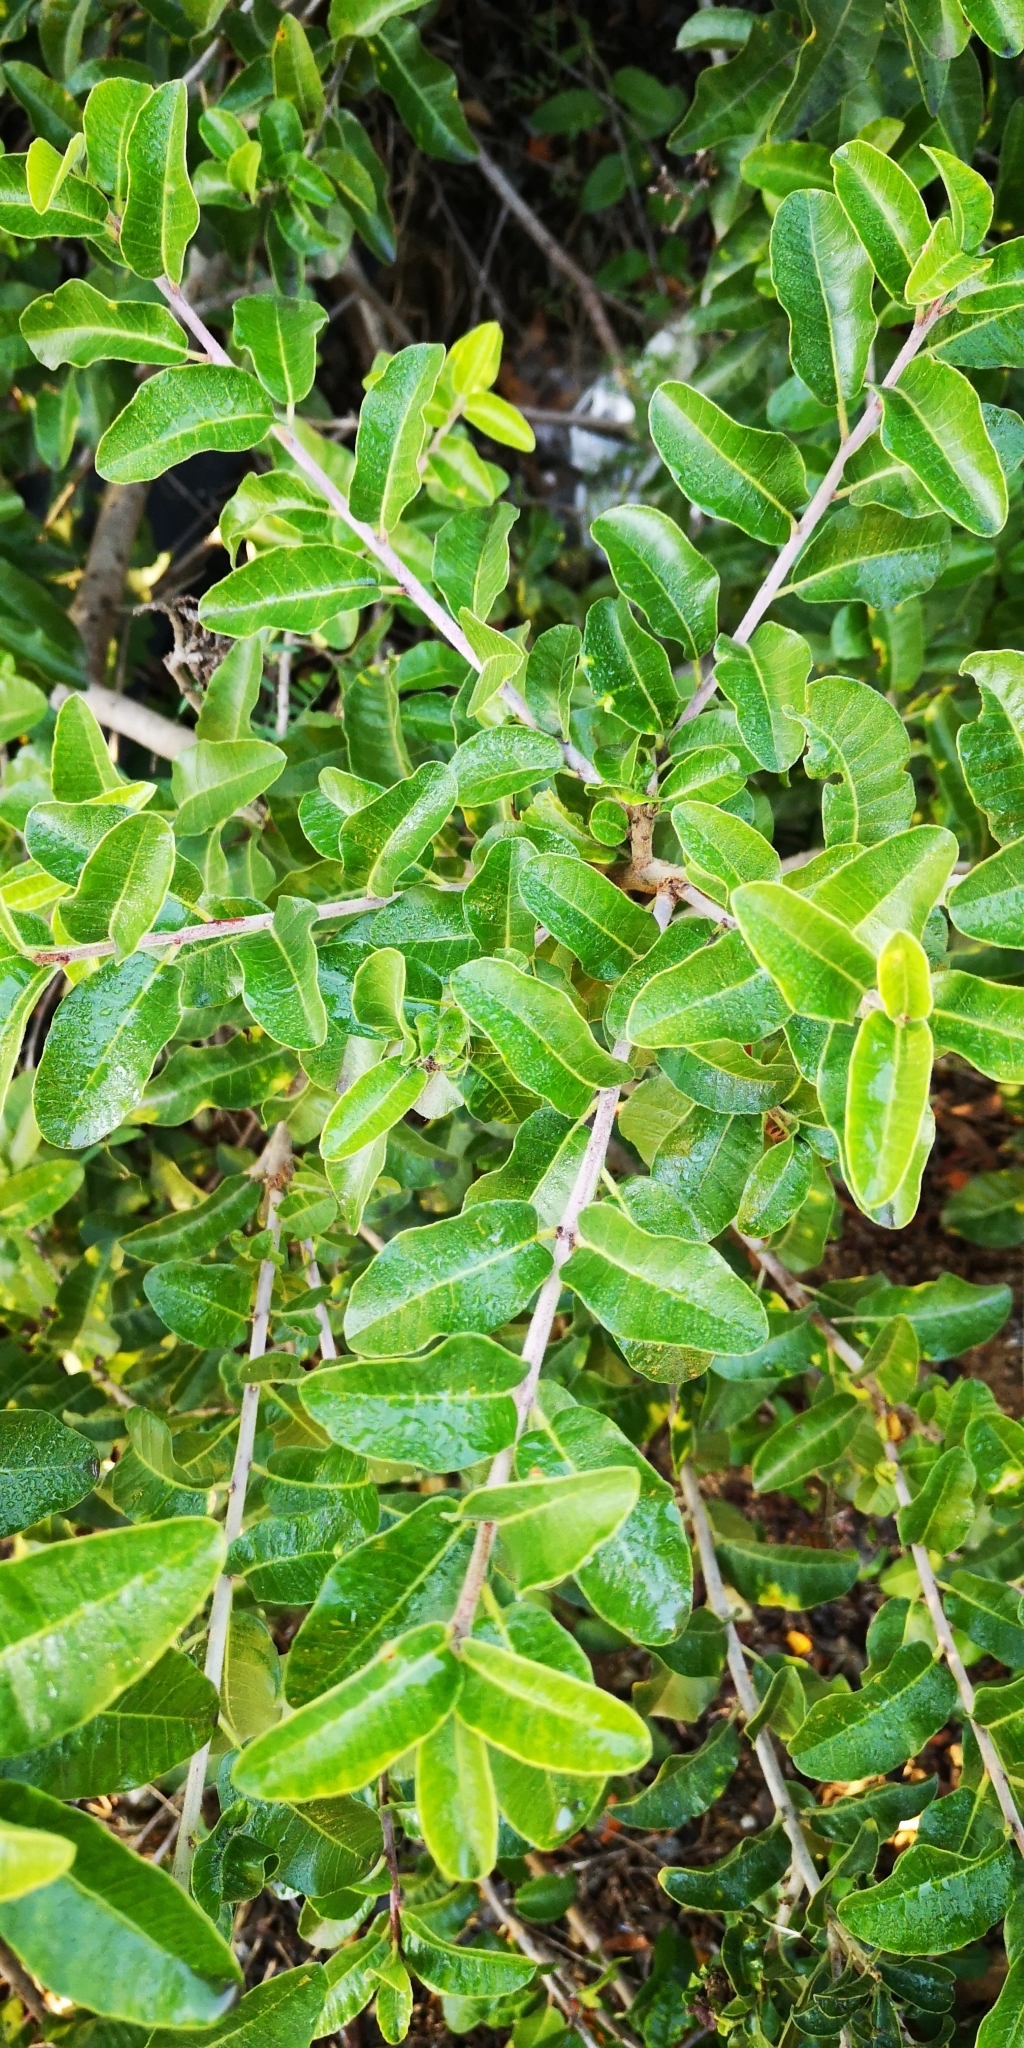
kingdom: Plantae
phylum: Tracheophyta
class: Magnoliopsida
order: Sapindales
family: Anacardiaceae
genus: Lithraea
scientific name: Lithraea caustica
